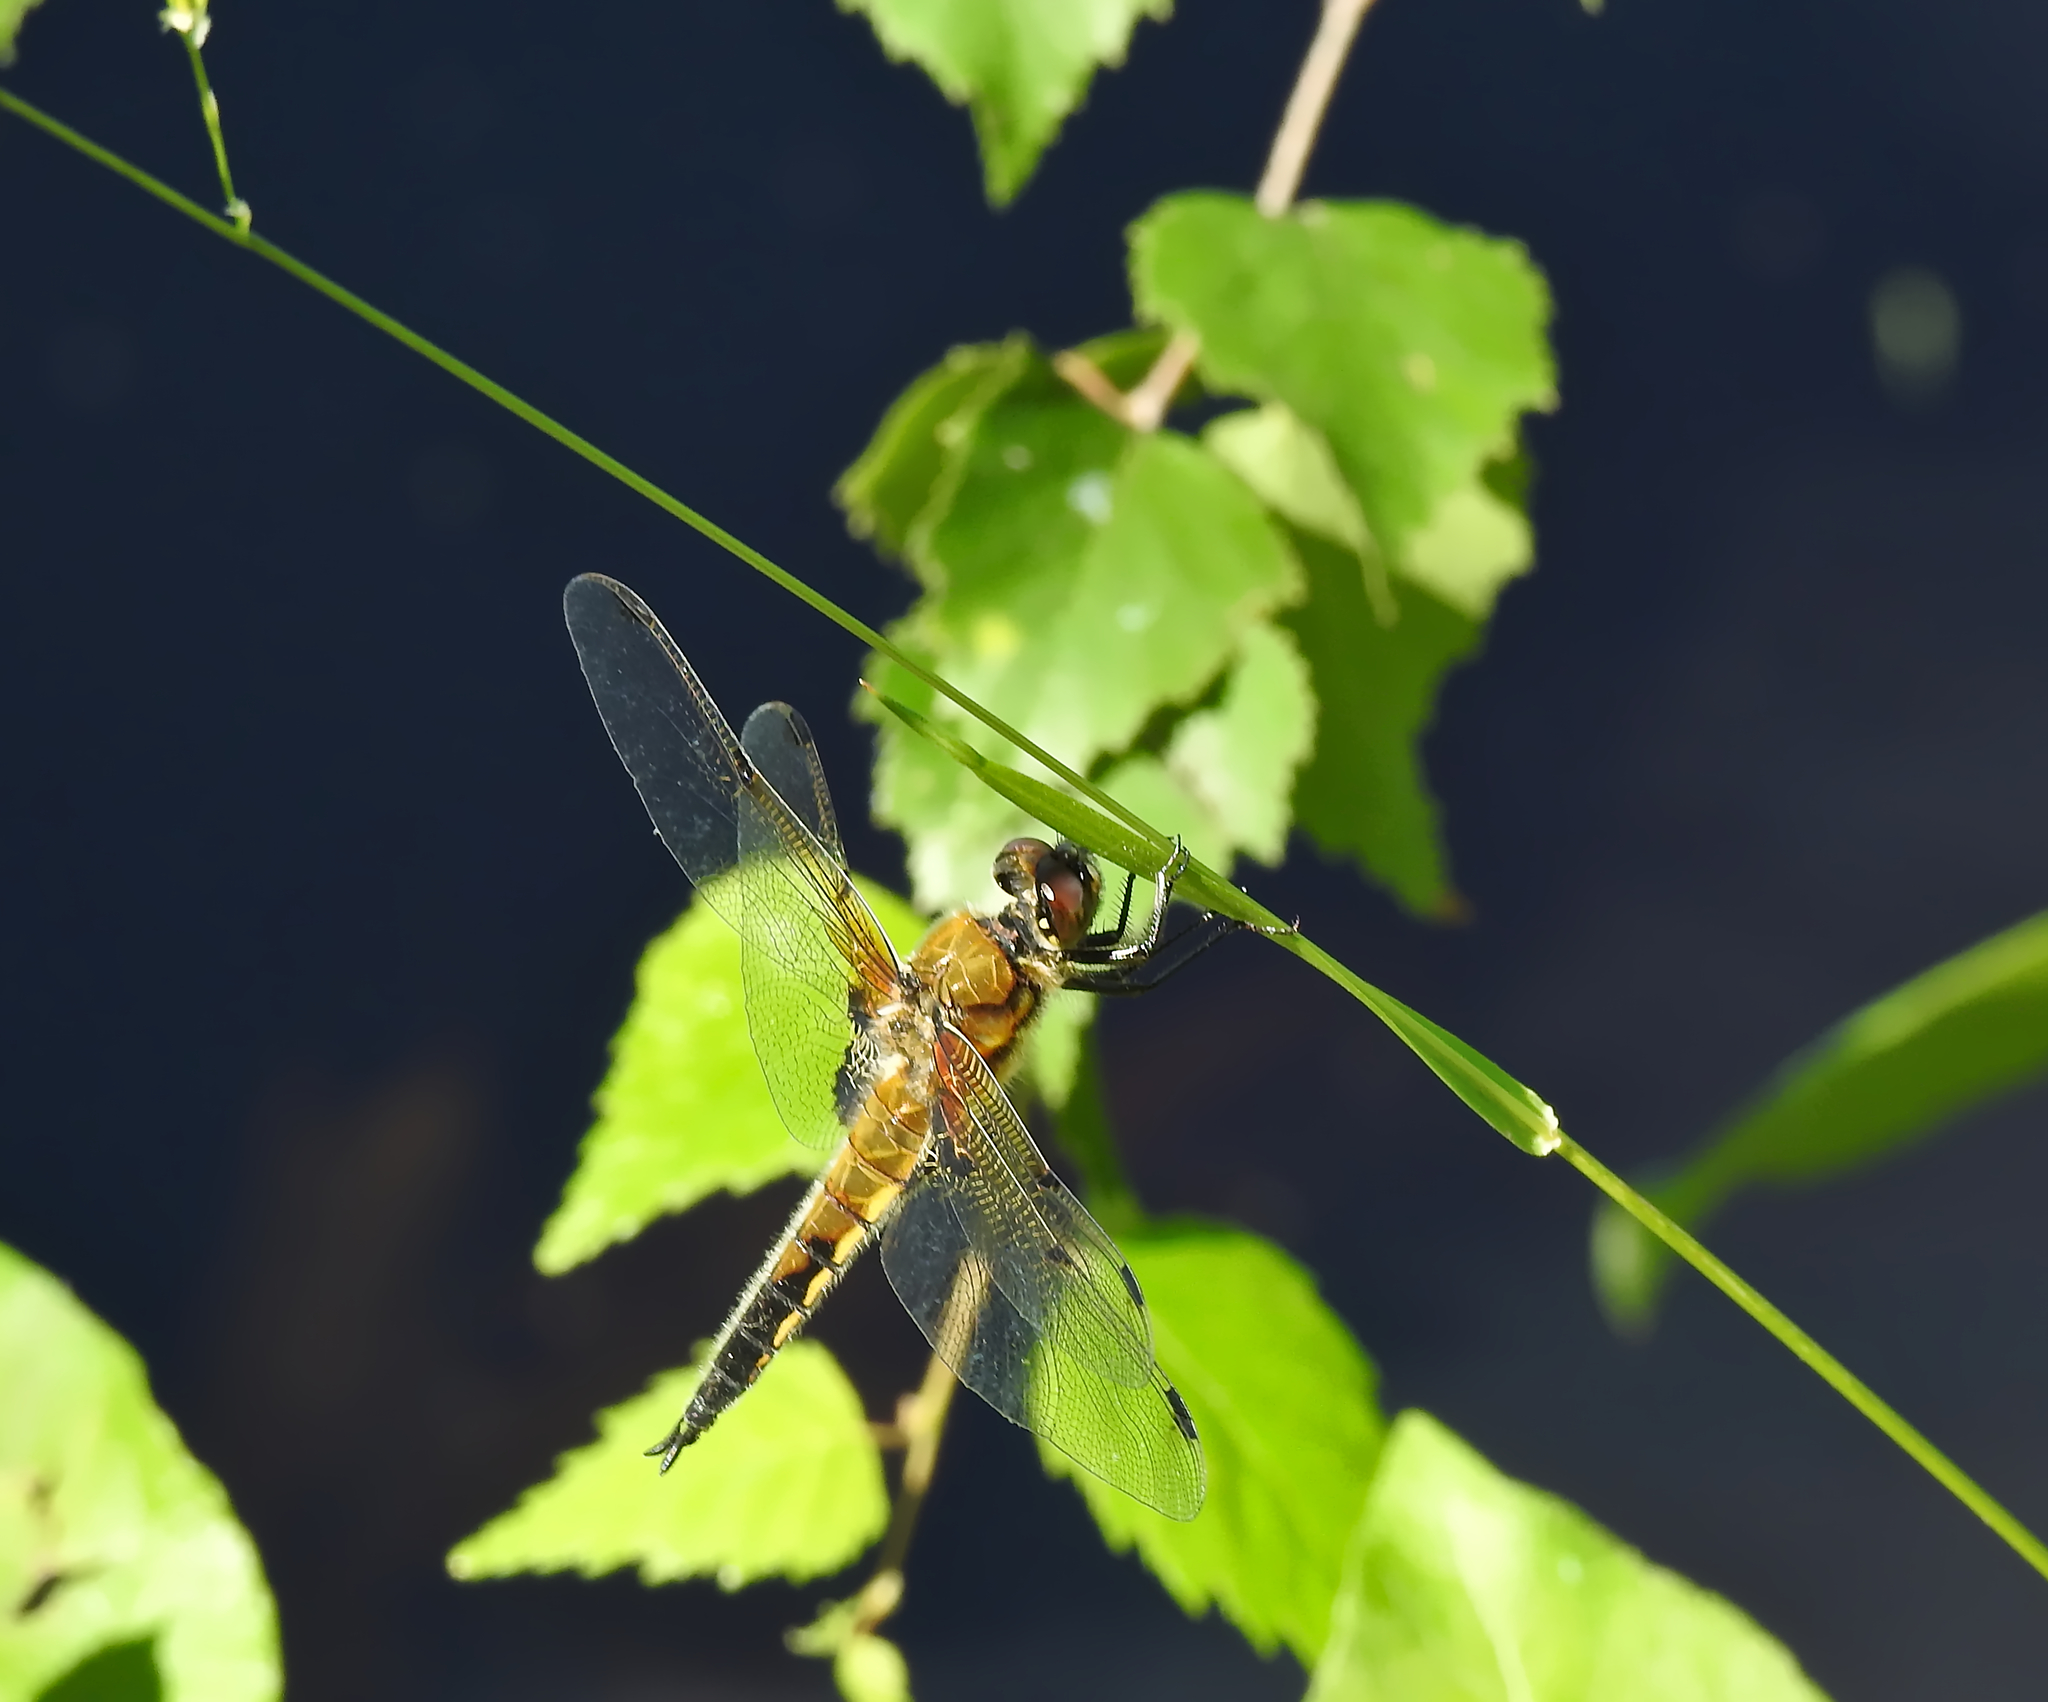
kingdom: Animalia
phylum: Arthropoda
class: Insecta
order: Odonata
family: Libellulidae
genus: Libellula
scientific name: Libellula quadrimaculata
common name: Four-spotted chaser
